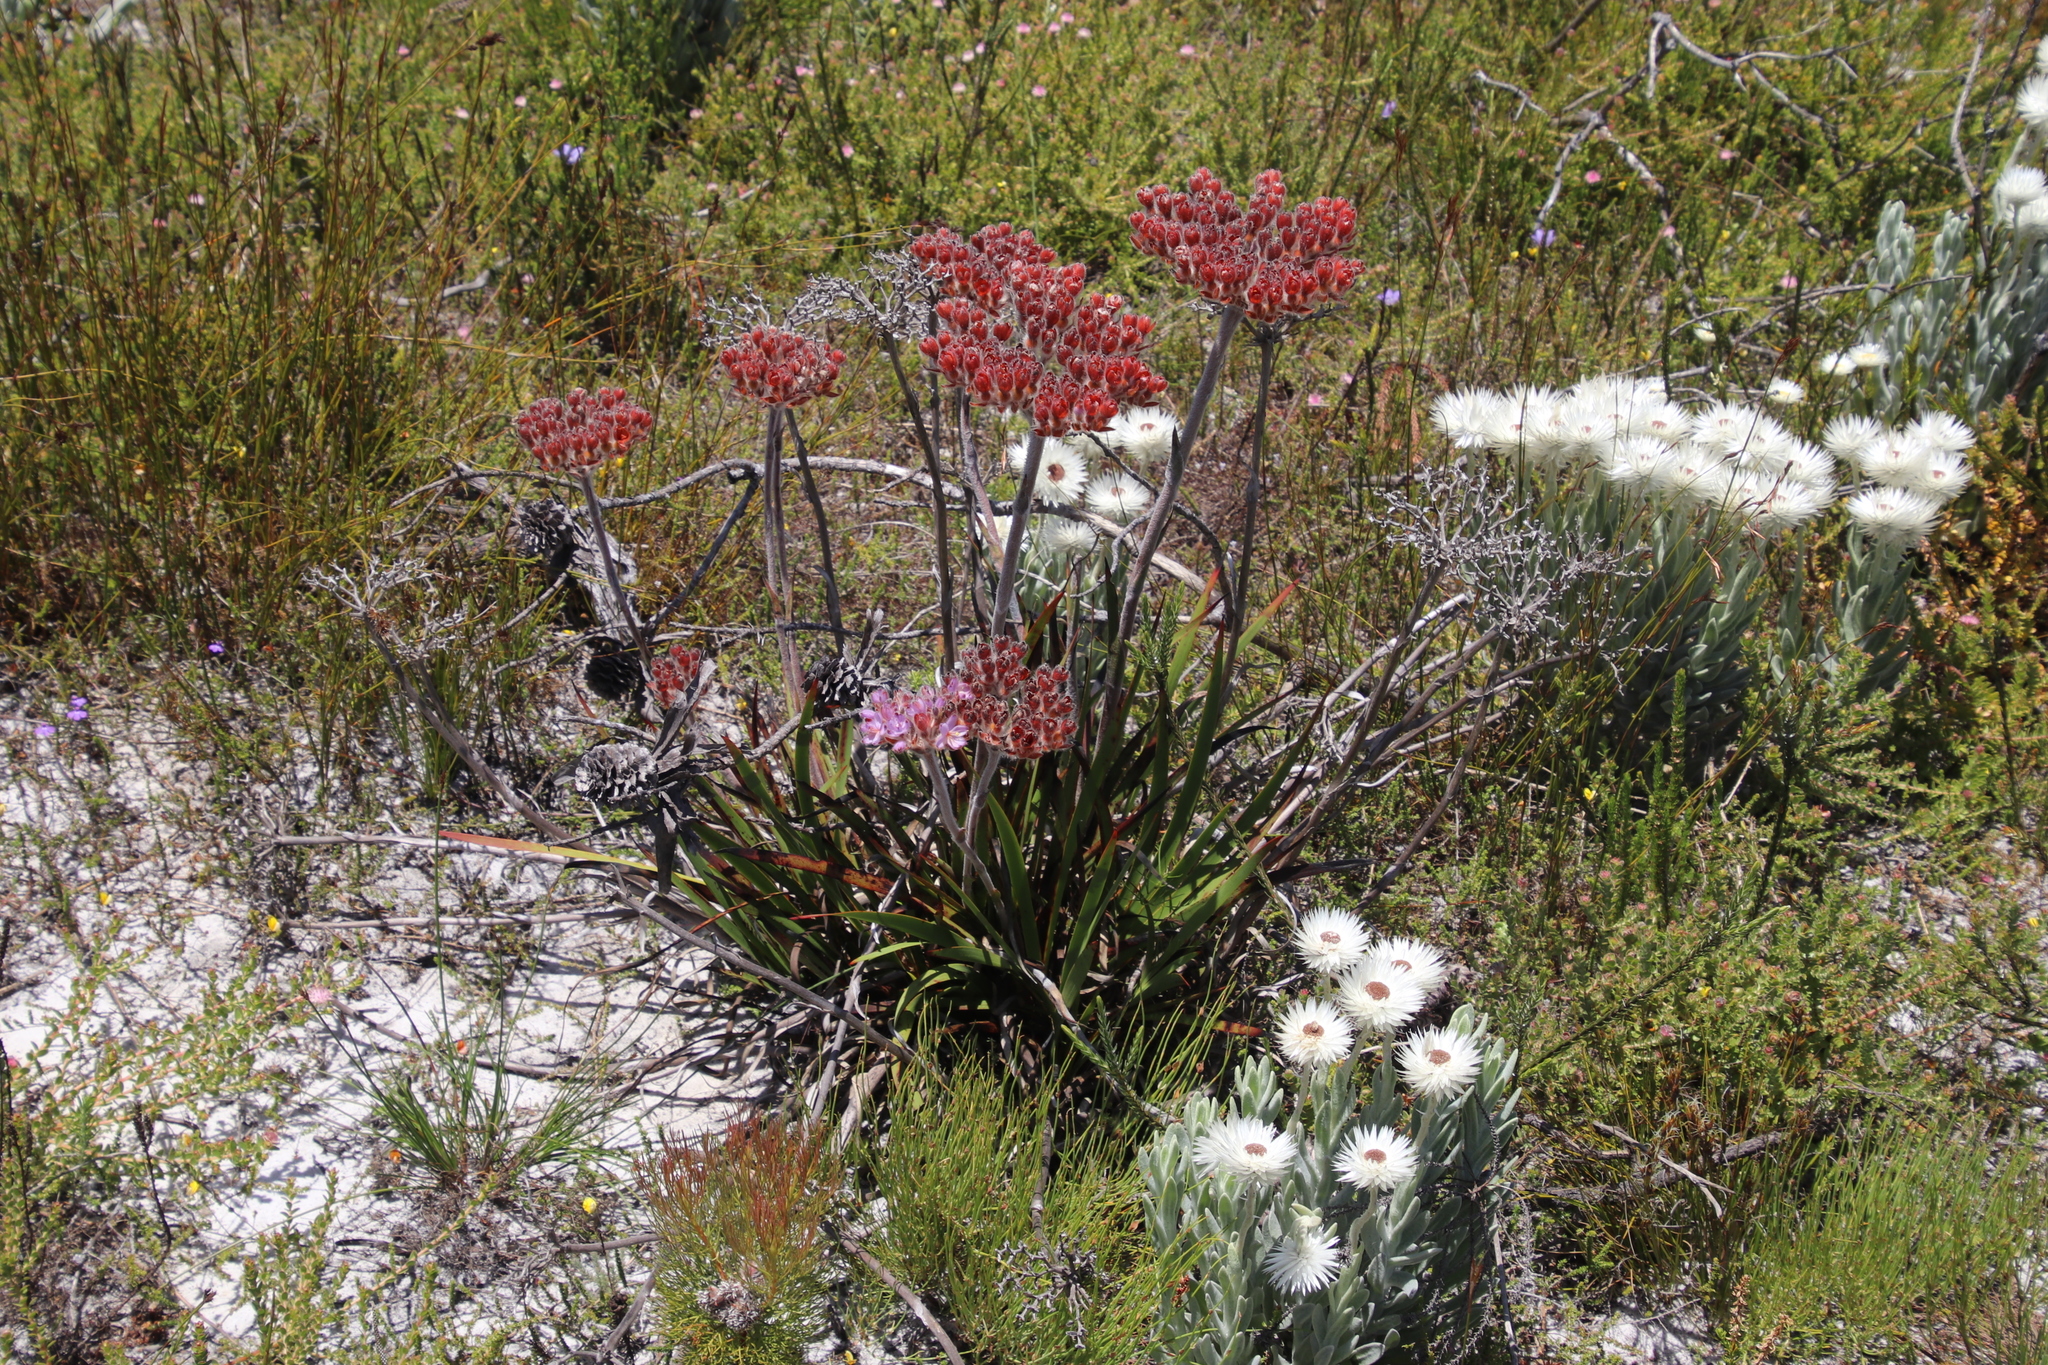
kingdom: Plantae
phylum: Tracheophyta
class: Liliopsida
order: Commelinales
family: Haemodoraceae
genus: Dilatris
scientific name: Dilatris corymbosa
